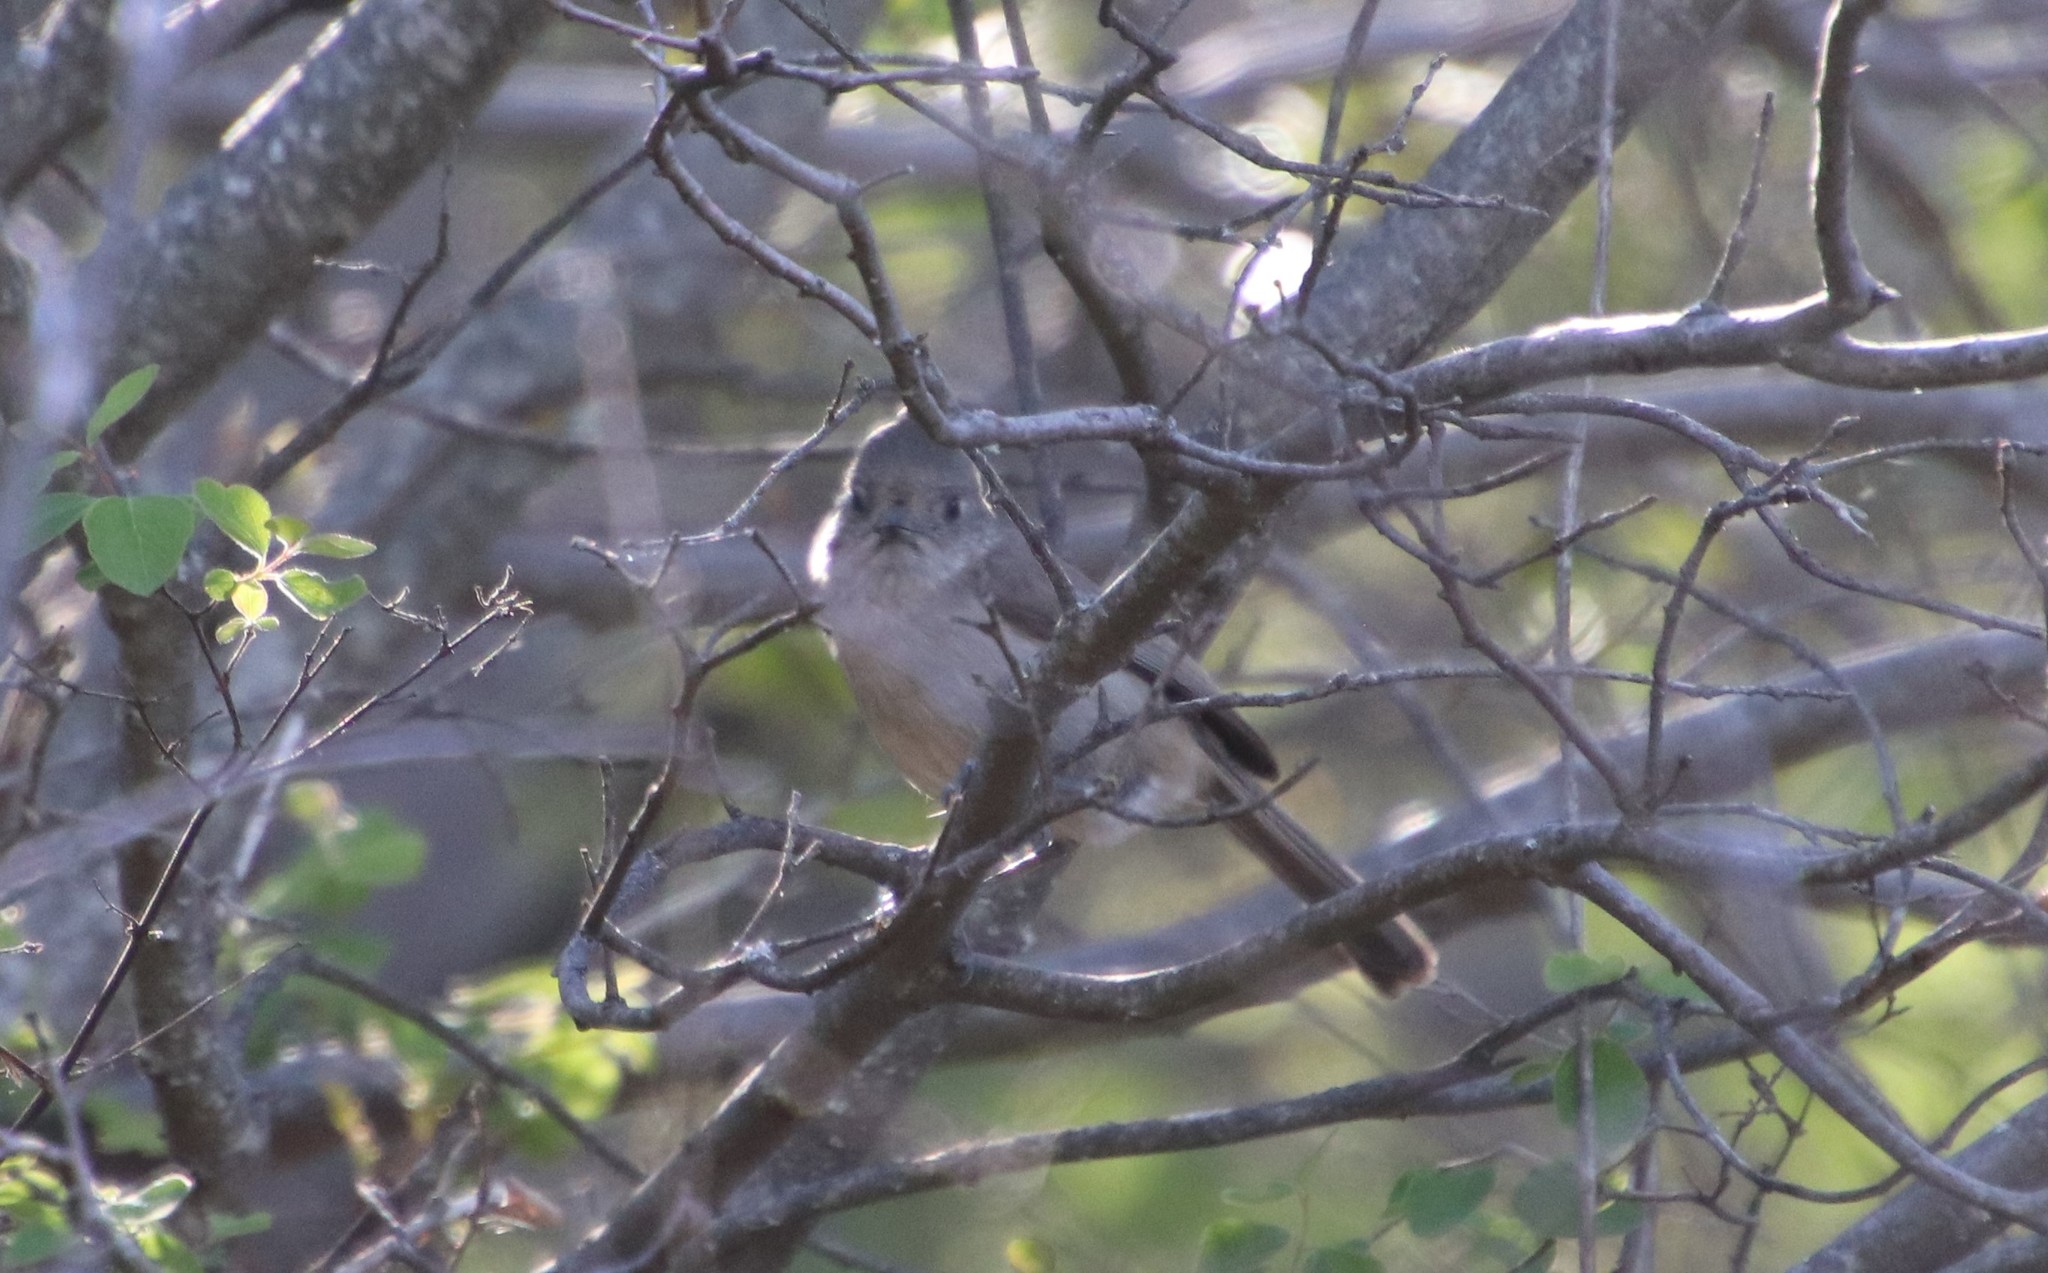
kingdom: Animalia
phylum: Chordata
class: Aves
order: Passeriformes
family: Paridae
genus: Baeolophus
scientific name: Baeolophus inornatus
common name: Oak titmouse
